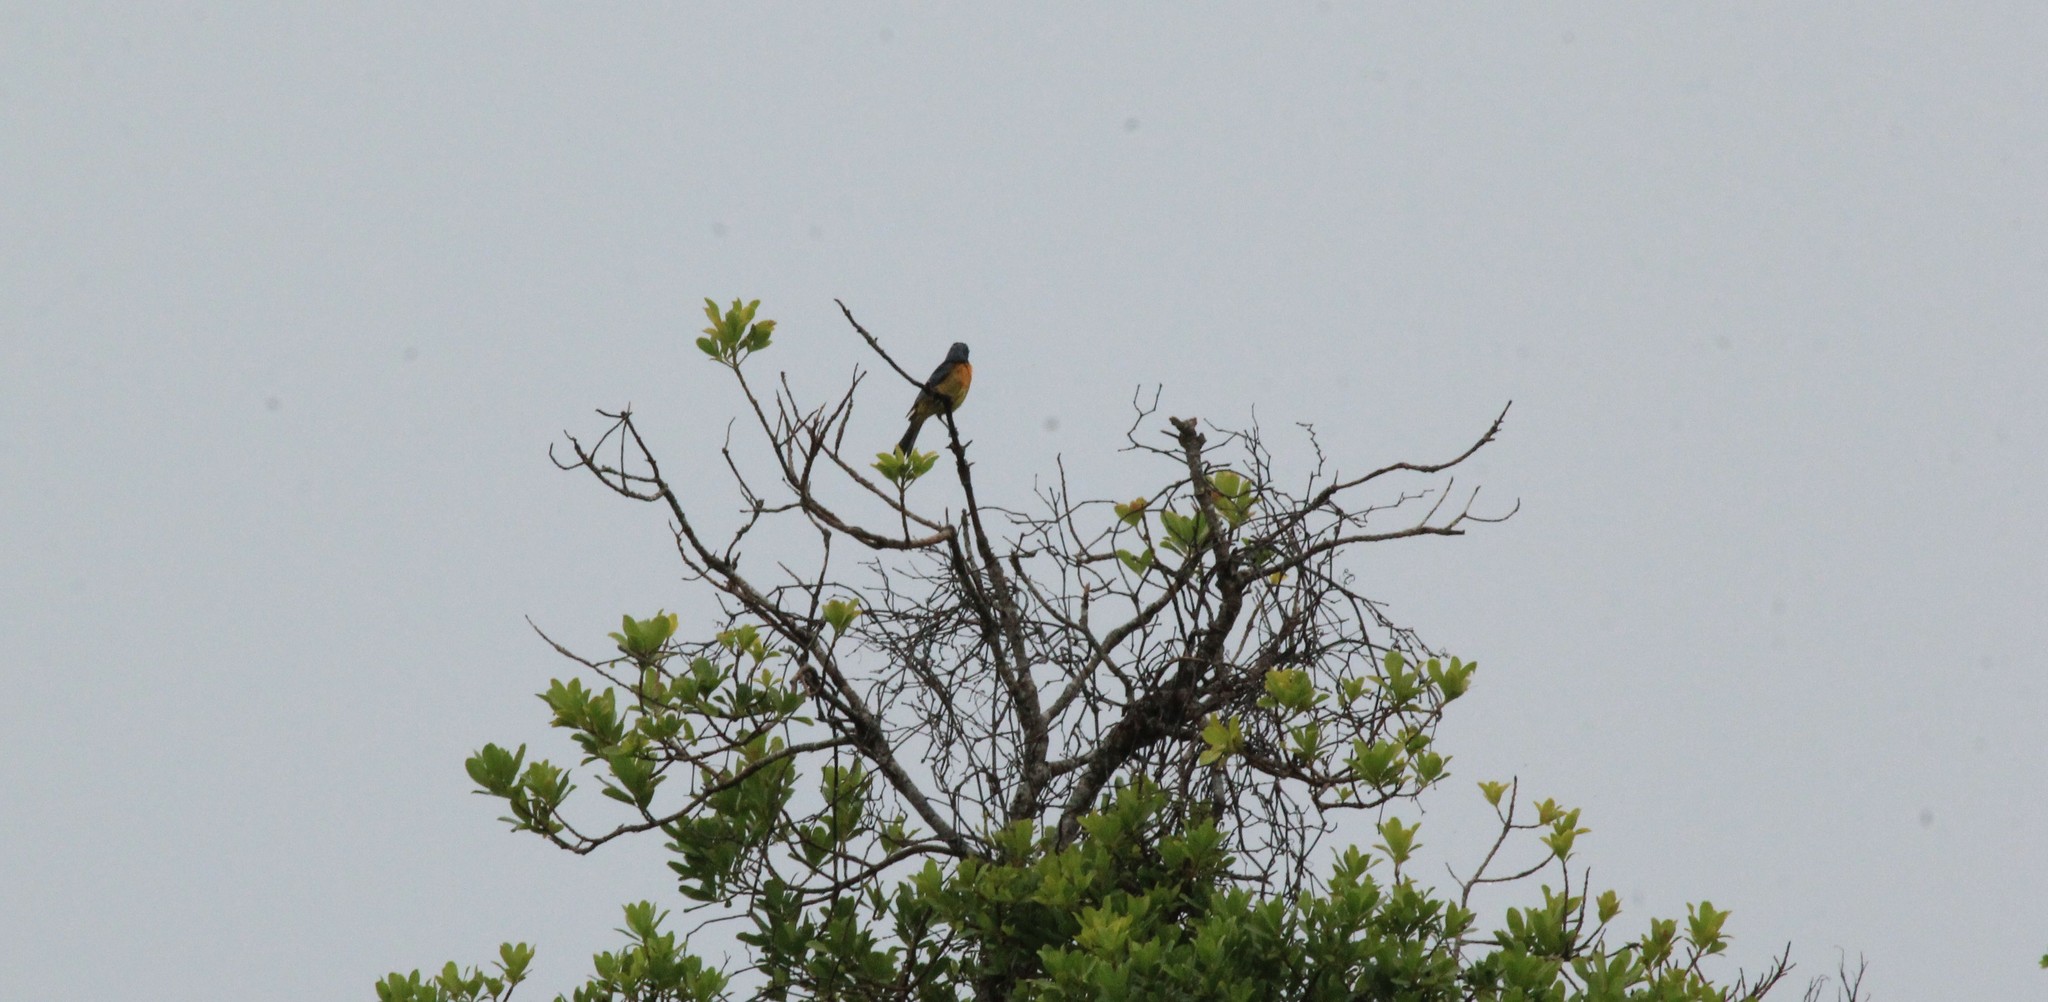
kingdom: Animalia
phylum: Chordata
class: Aves
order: Passeriformes
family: Thraupidae
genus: Rauenia
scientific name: Rauenia bonariensis
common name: Blue-and-yellow tanager
